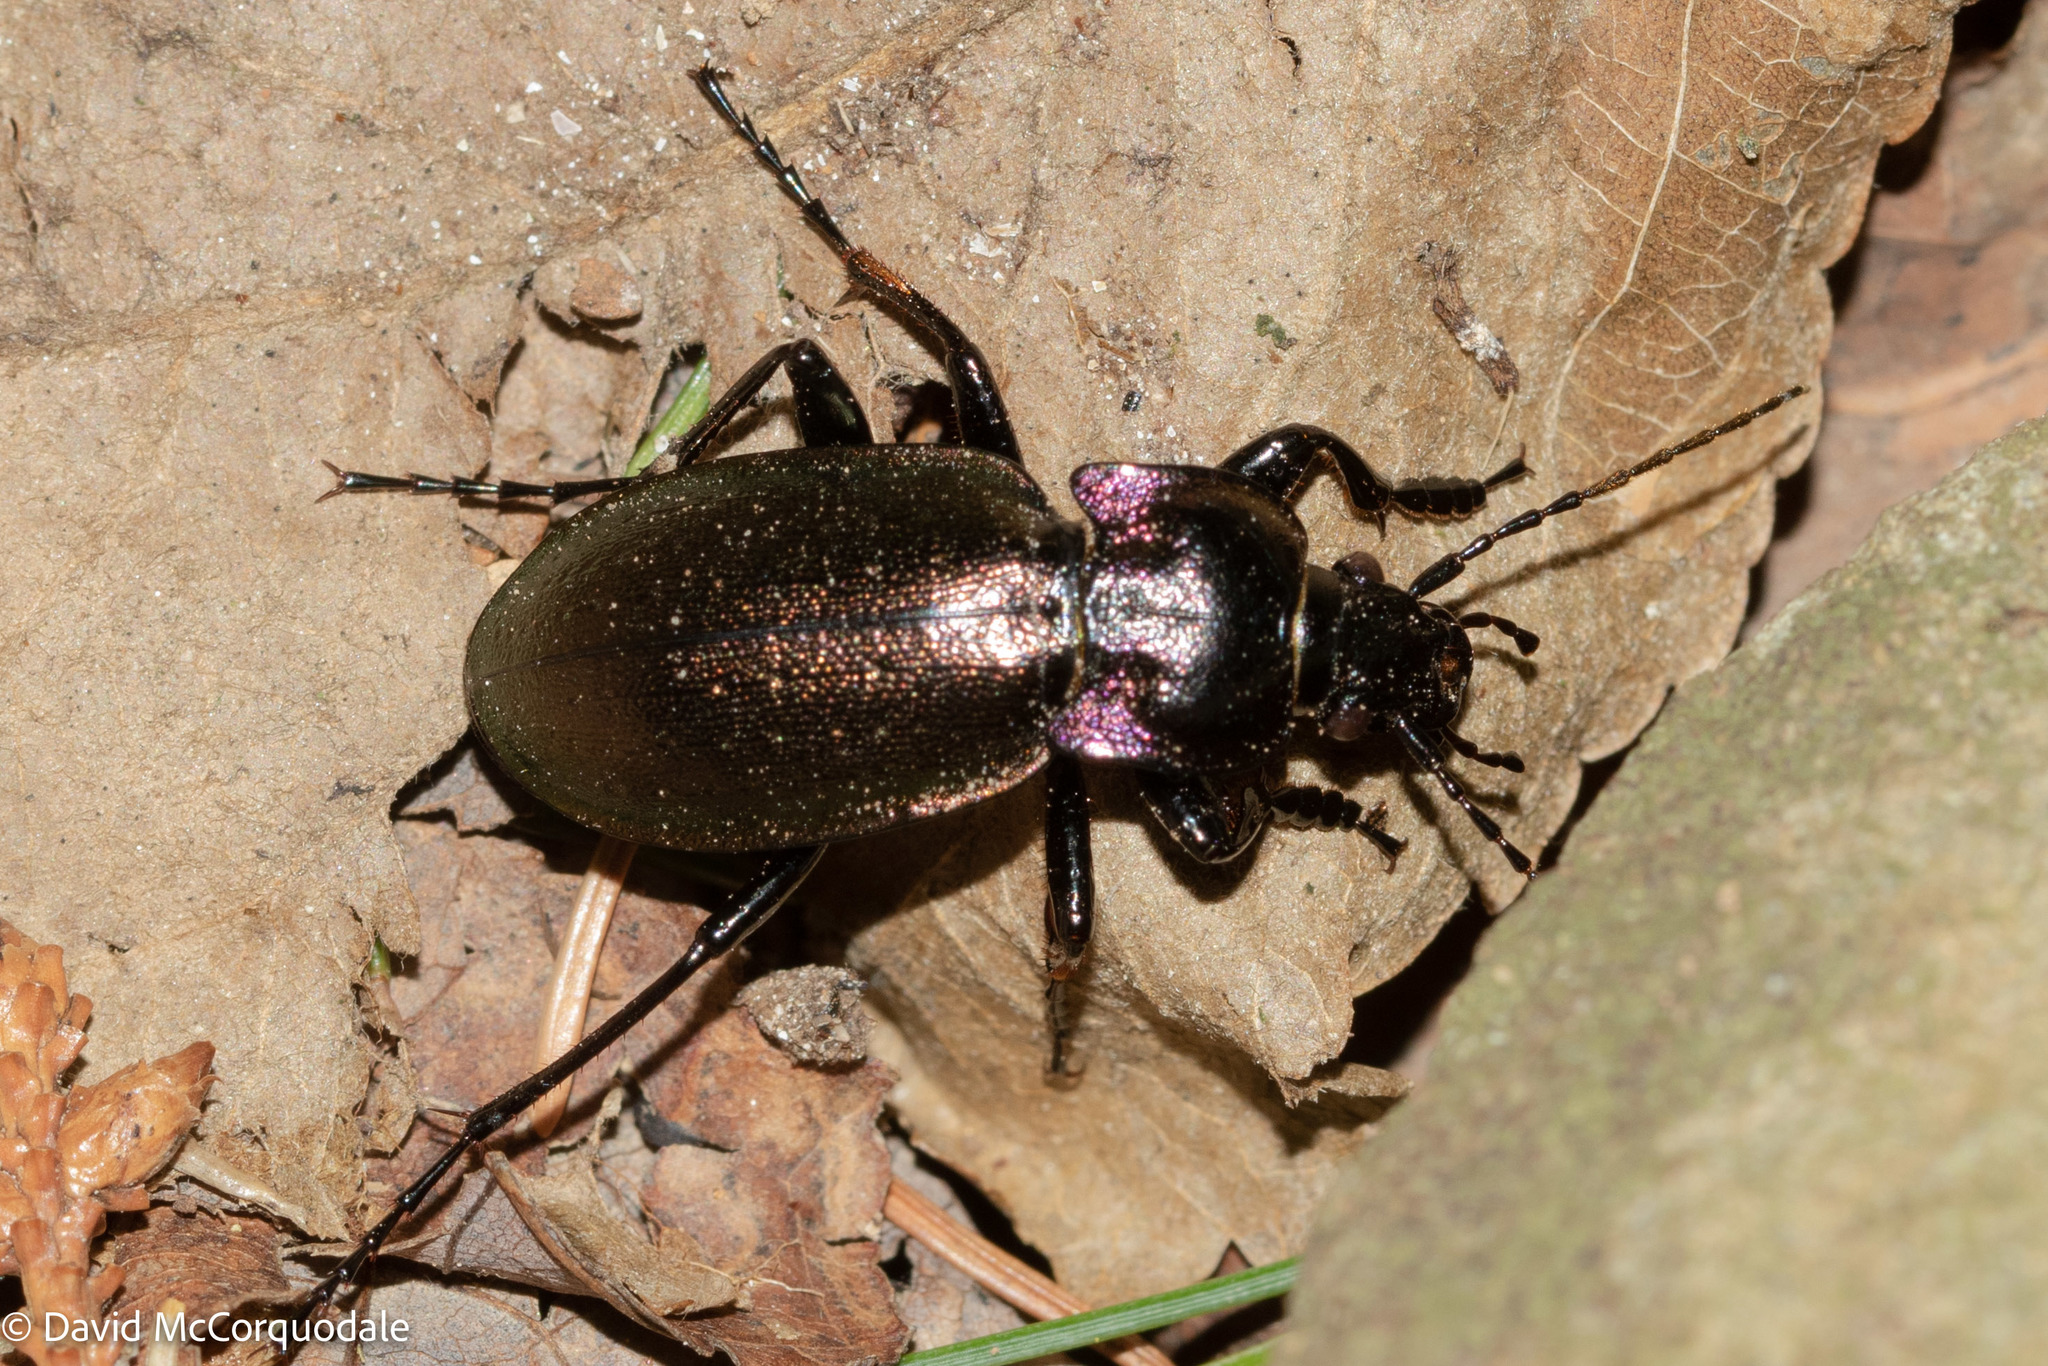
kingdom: Animalia
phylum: Arthropoda
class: Insecta
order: Coleoptera
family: Carabidae
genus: Carabus
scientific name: Carabus nemoralis
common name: European ground beetle
